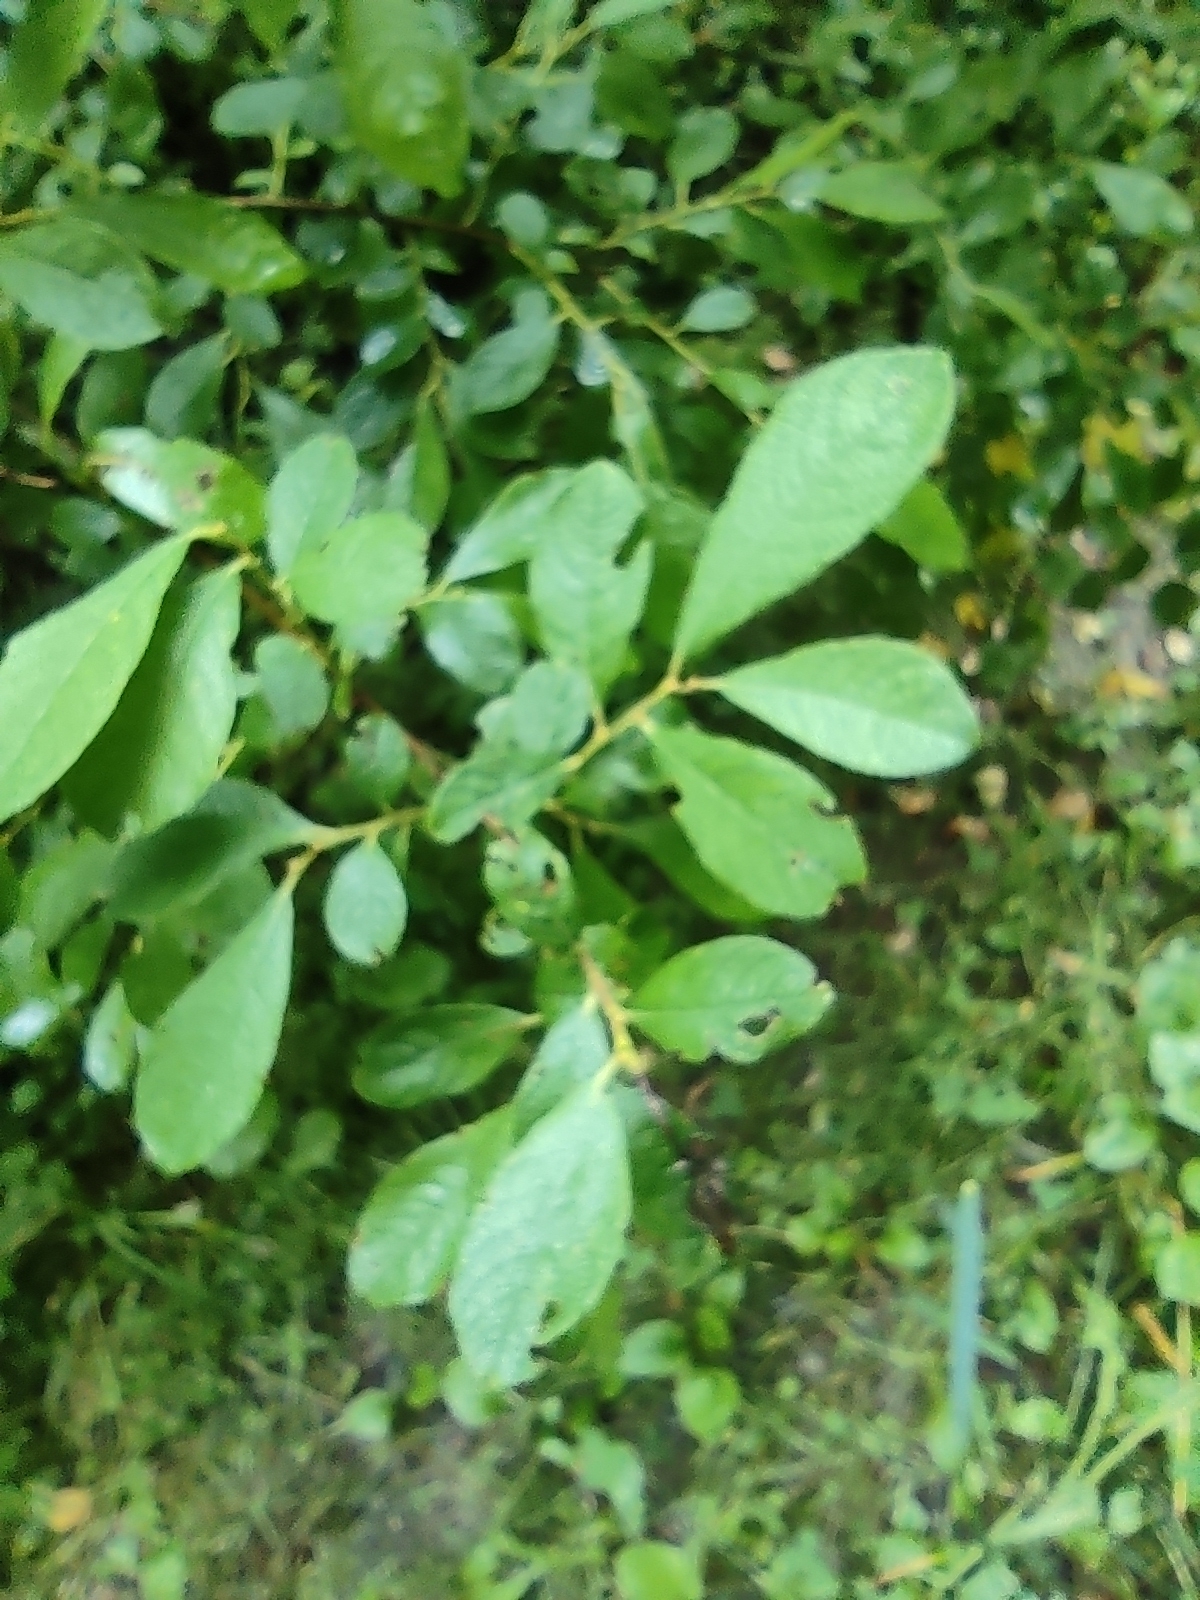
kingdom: Plantae
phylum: Tracheophyta
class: Magnoliopsida
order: Malpighiales
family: Salicaceae
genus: Salix
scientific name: Salix aurita
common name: Eared willow
